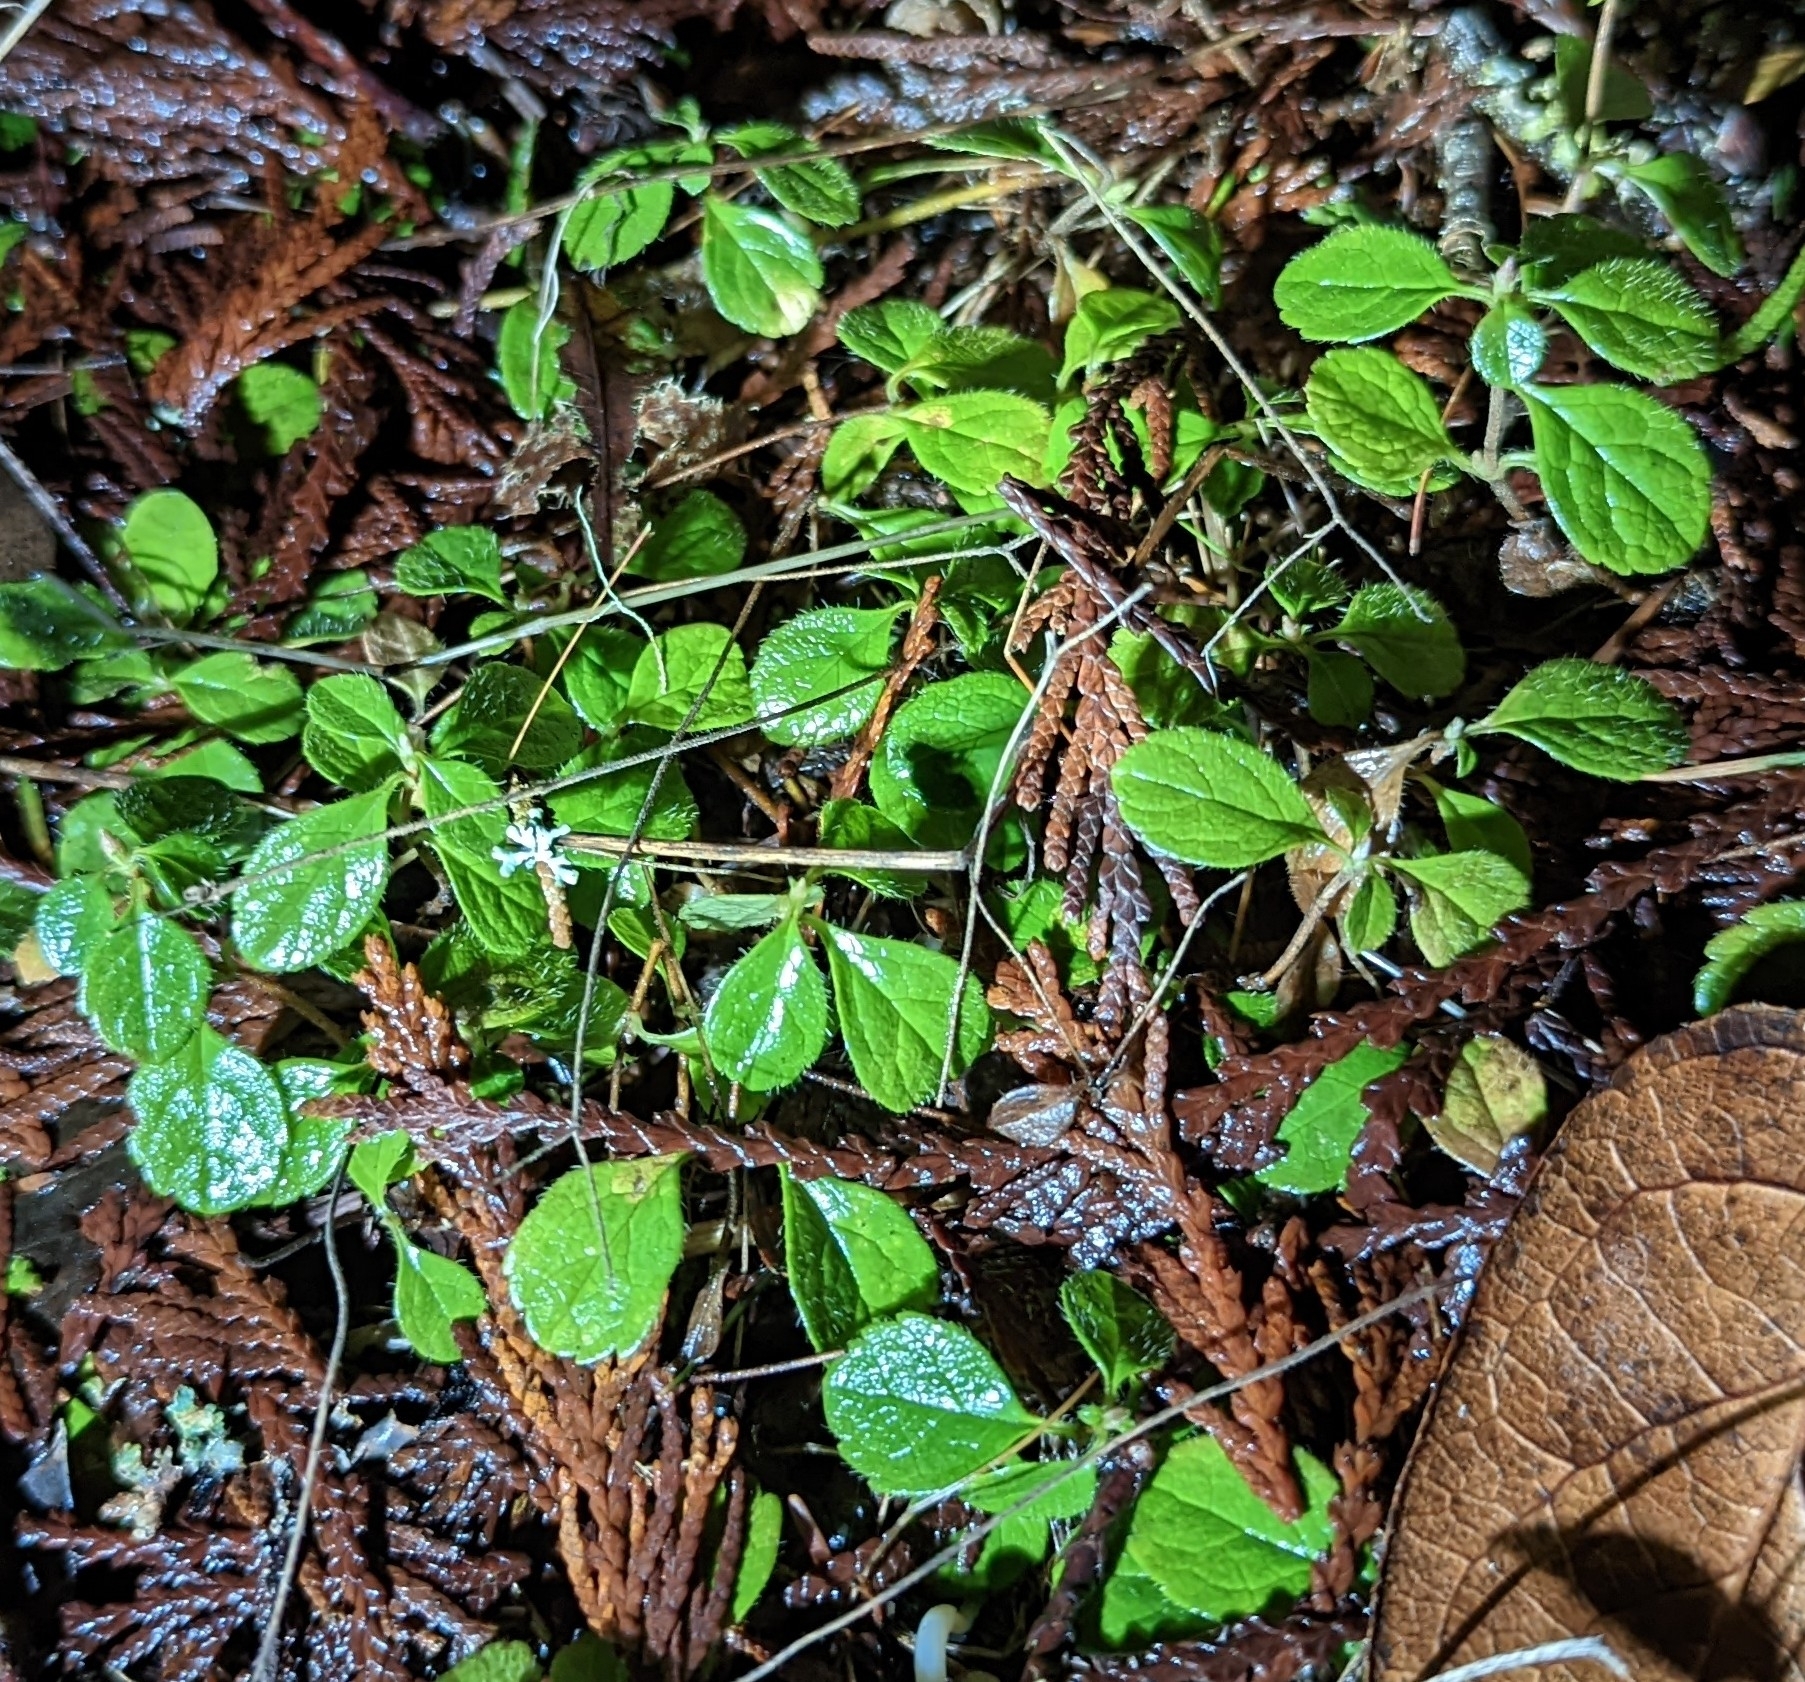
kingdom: Plantae
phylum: Tracheophyta
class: Magnoliopsida
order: Dipsacales
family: Caprifoliaceae
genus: Linnaea
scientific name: Linnaea borealis
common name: Twinflower
